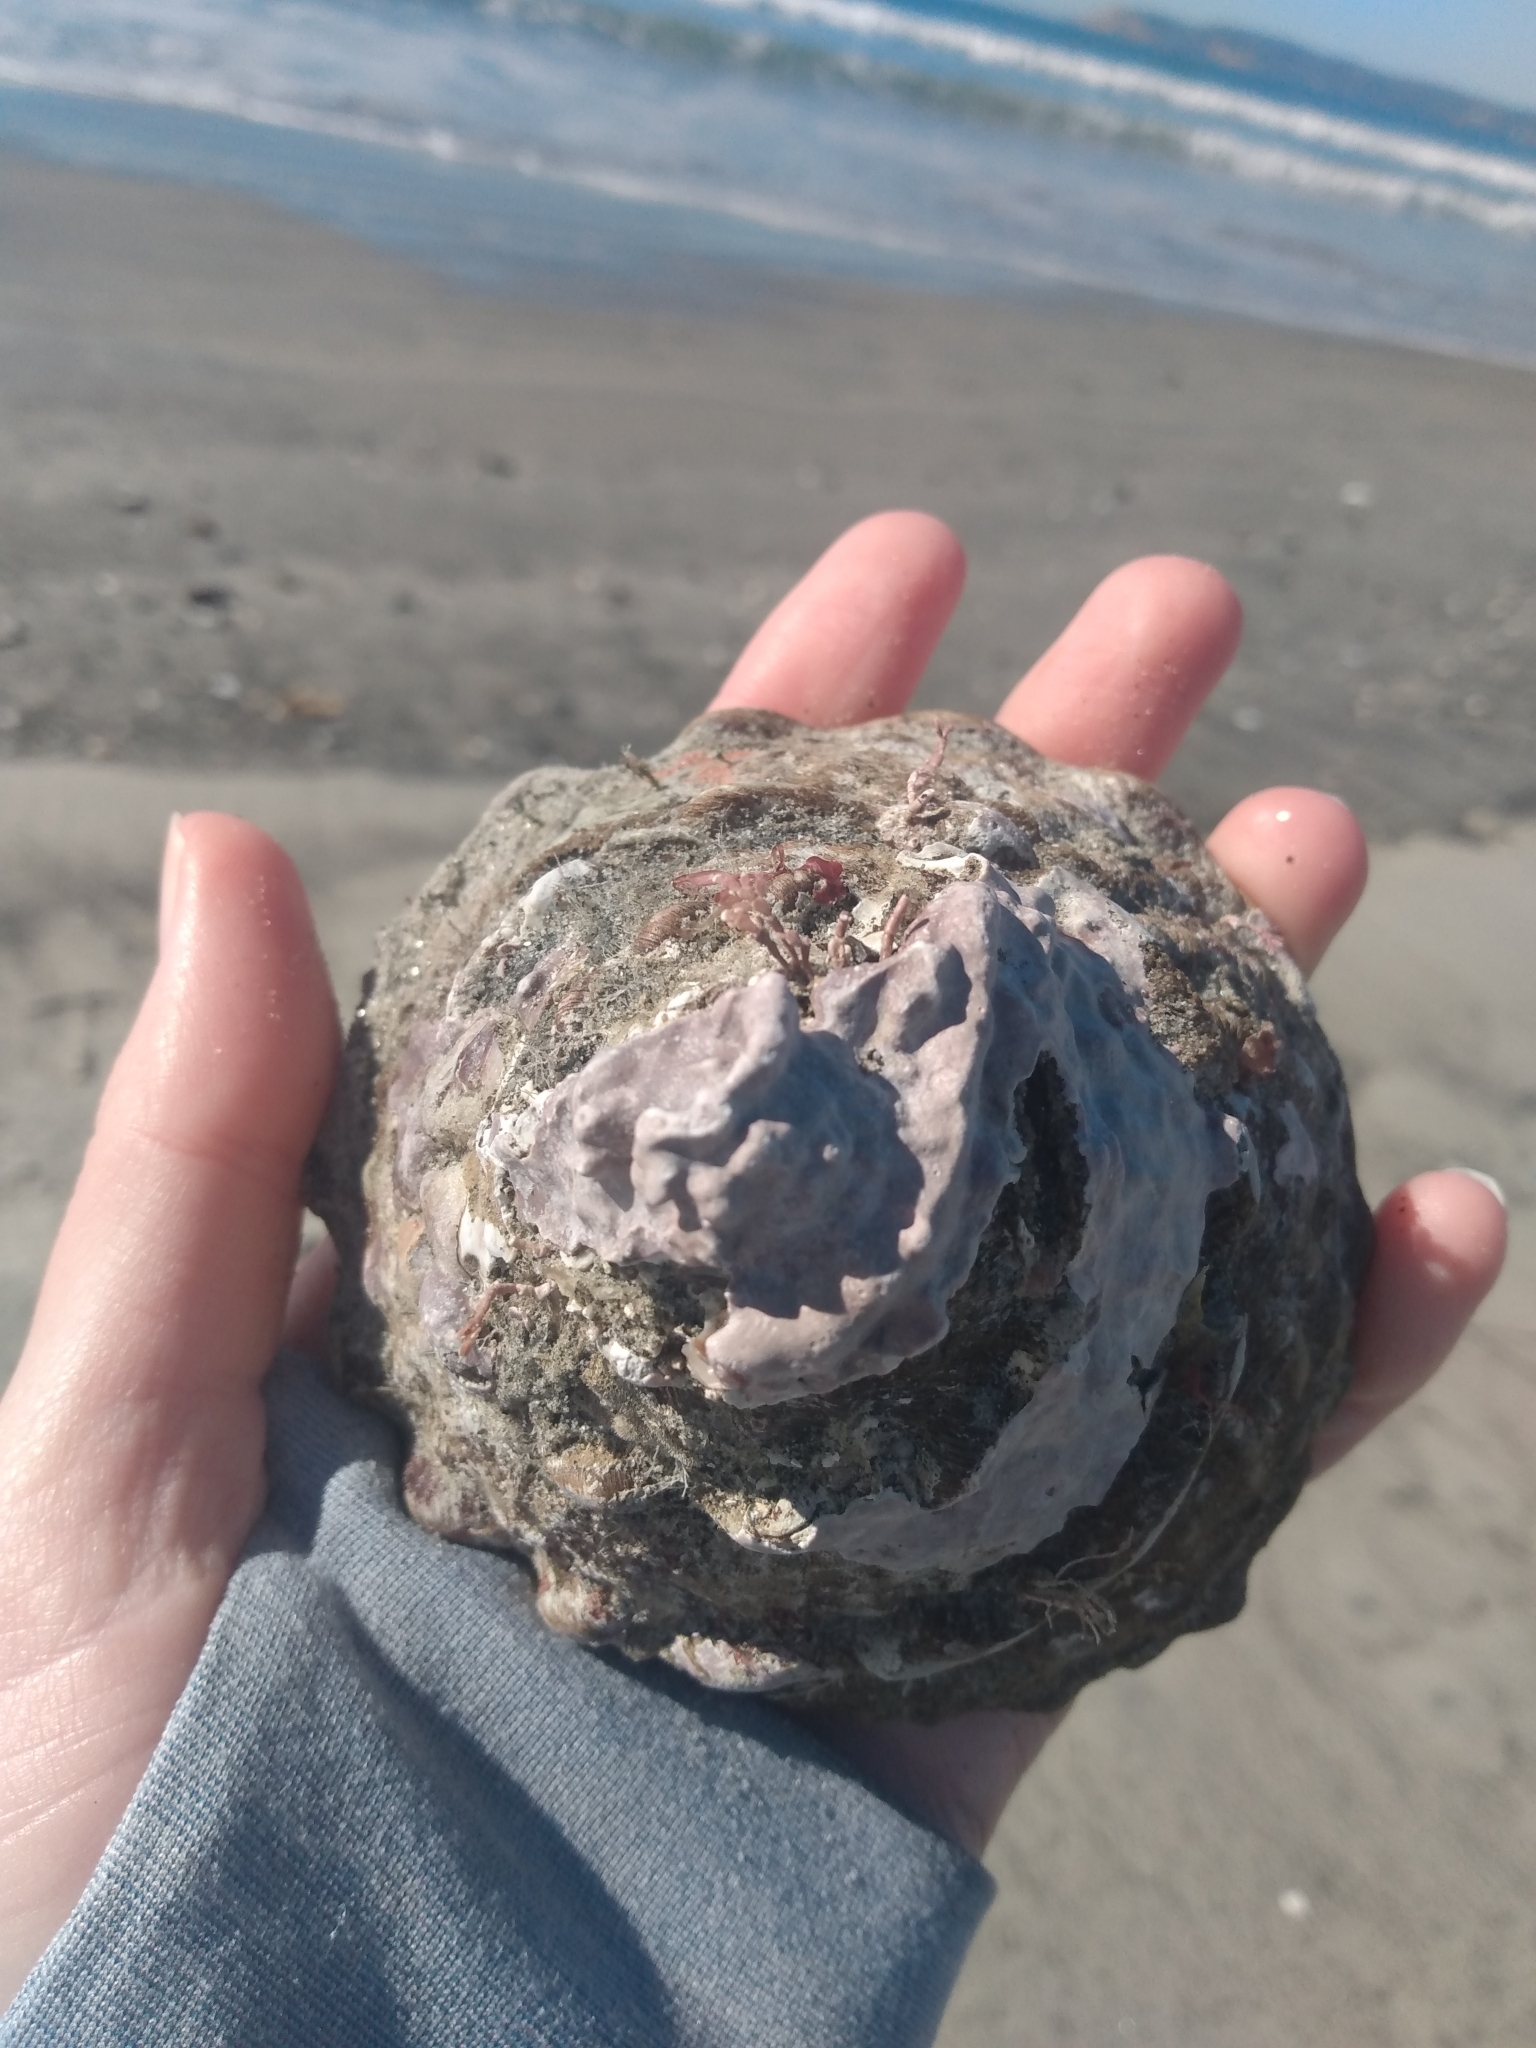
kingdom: Animalia
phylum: Mollusca
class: Gastropoda
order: Trochida
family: Turbinidae
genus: Megastraea
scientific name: Megastraea undosa
